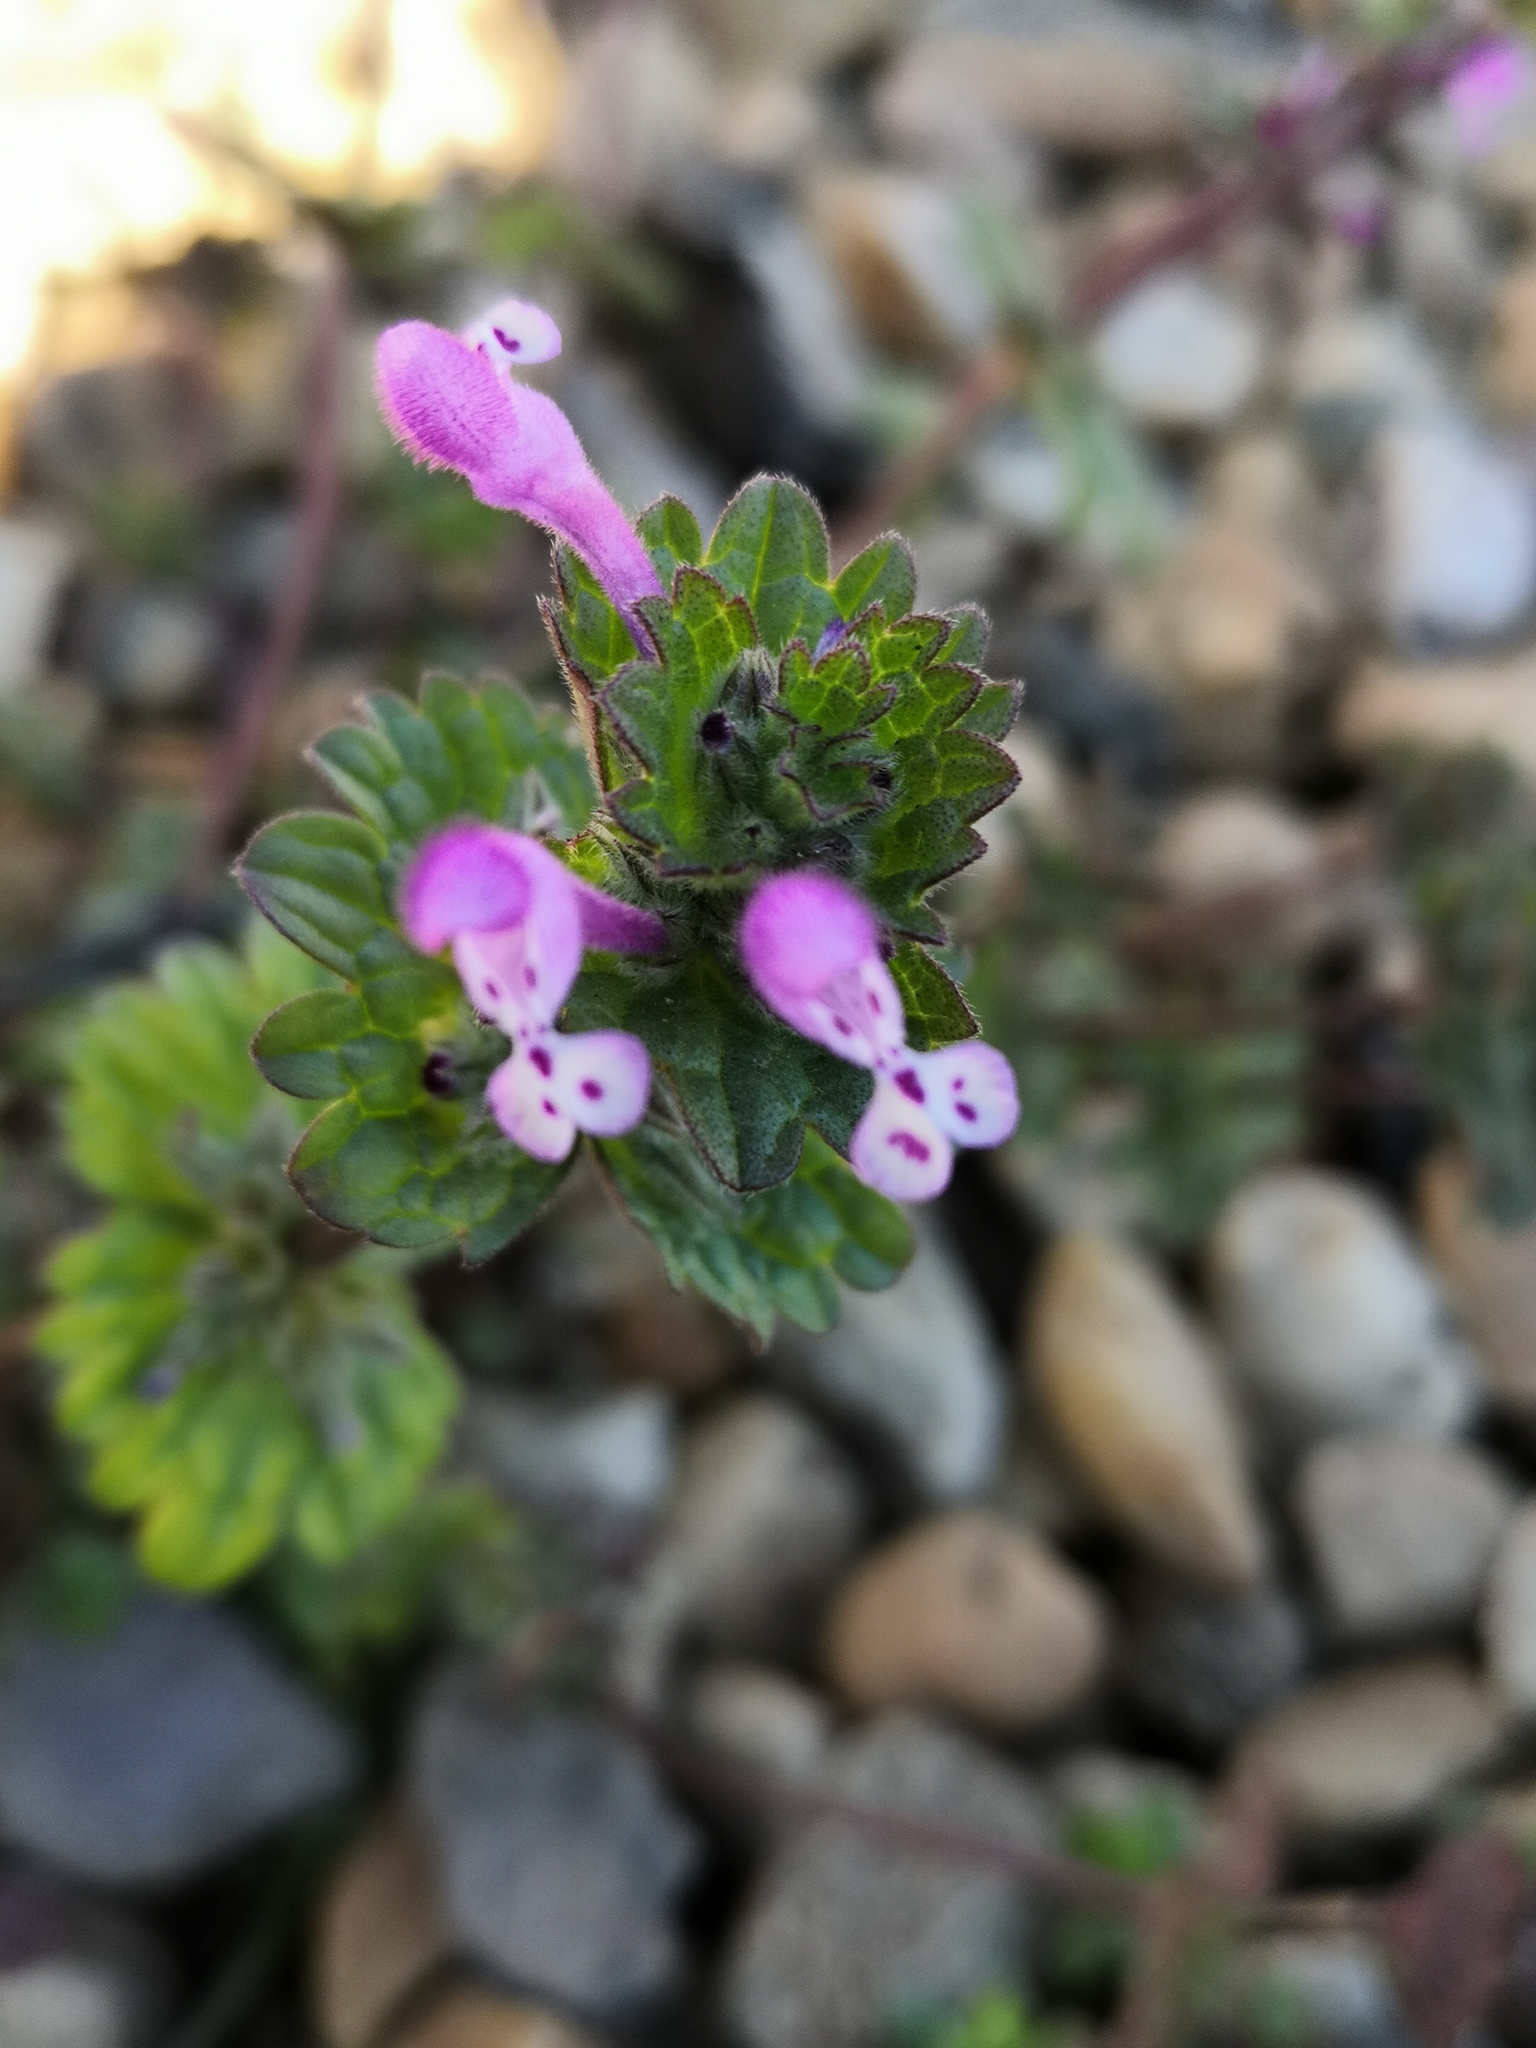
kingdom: Plantae
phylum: Tracheophyta
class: Magnoliopsida
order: Lamiales
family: Lamiaceae
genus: Lamium
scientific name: Lamium amplexicaule
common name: Henbit dead-nettle
